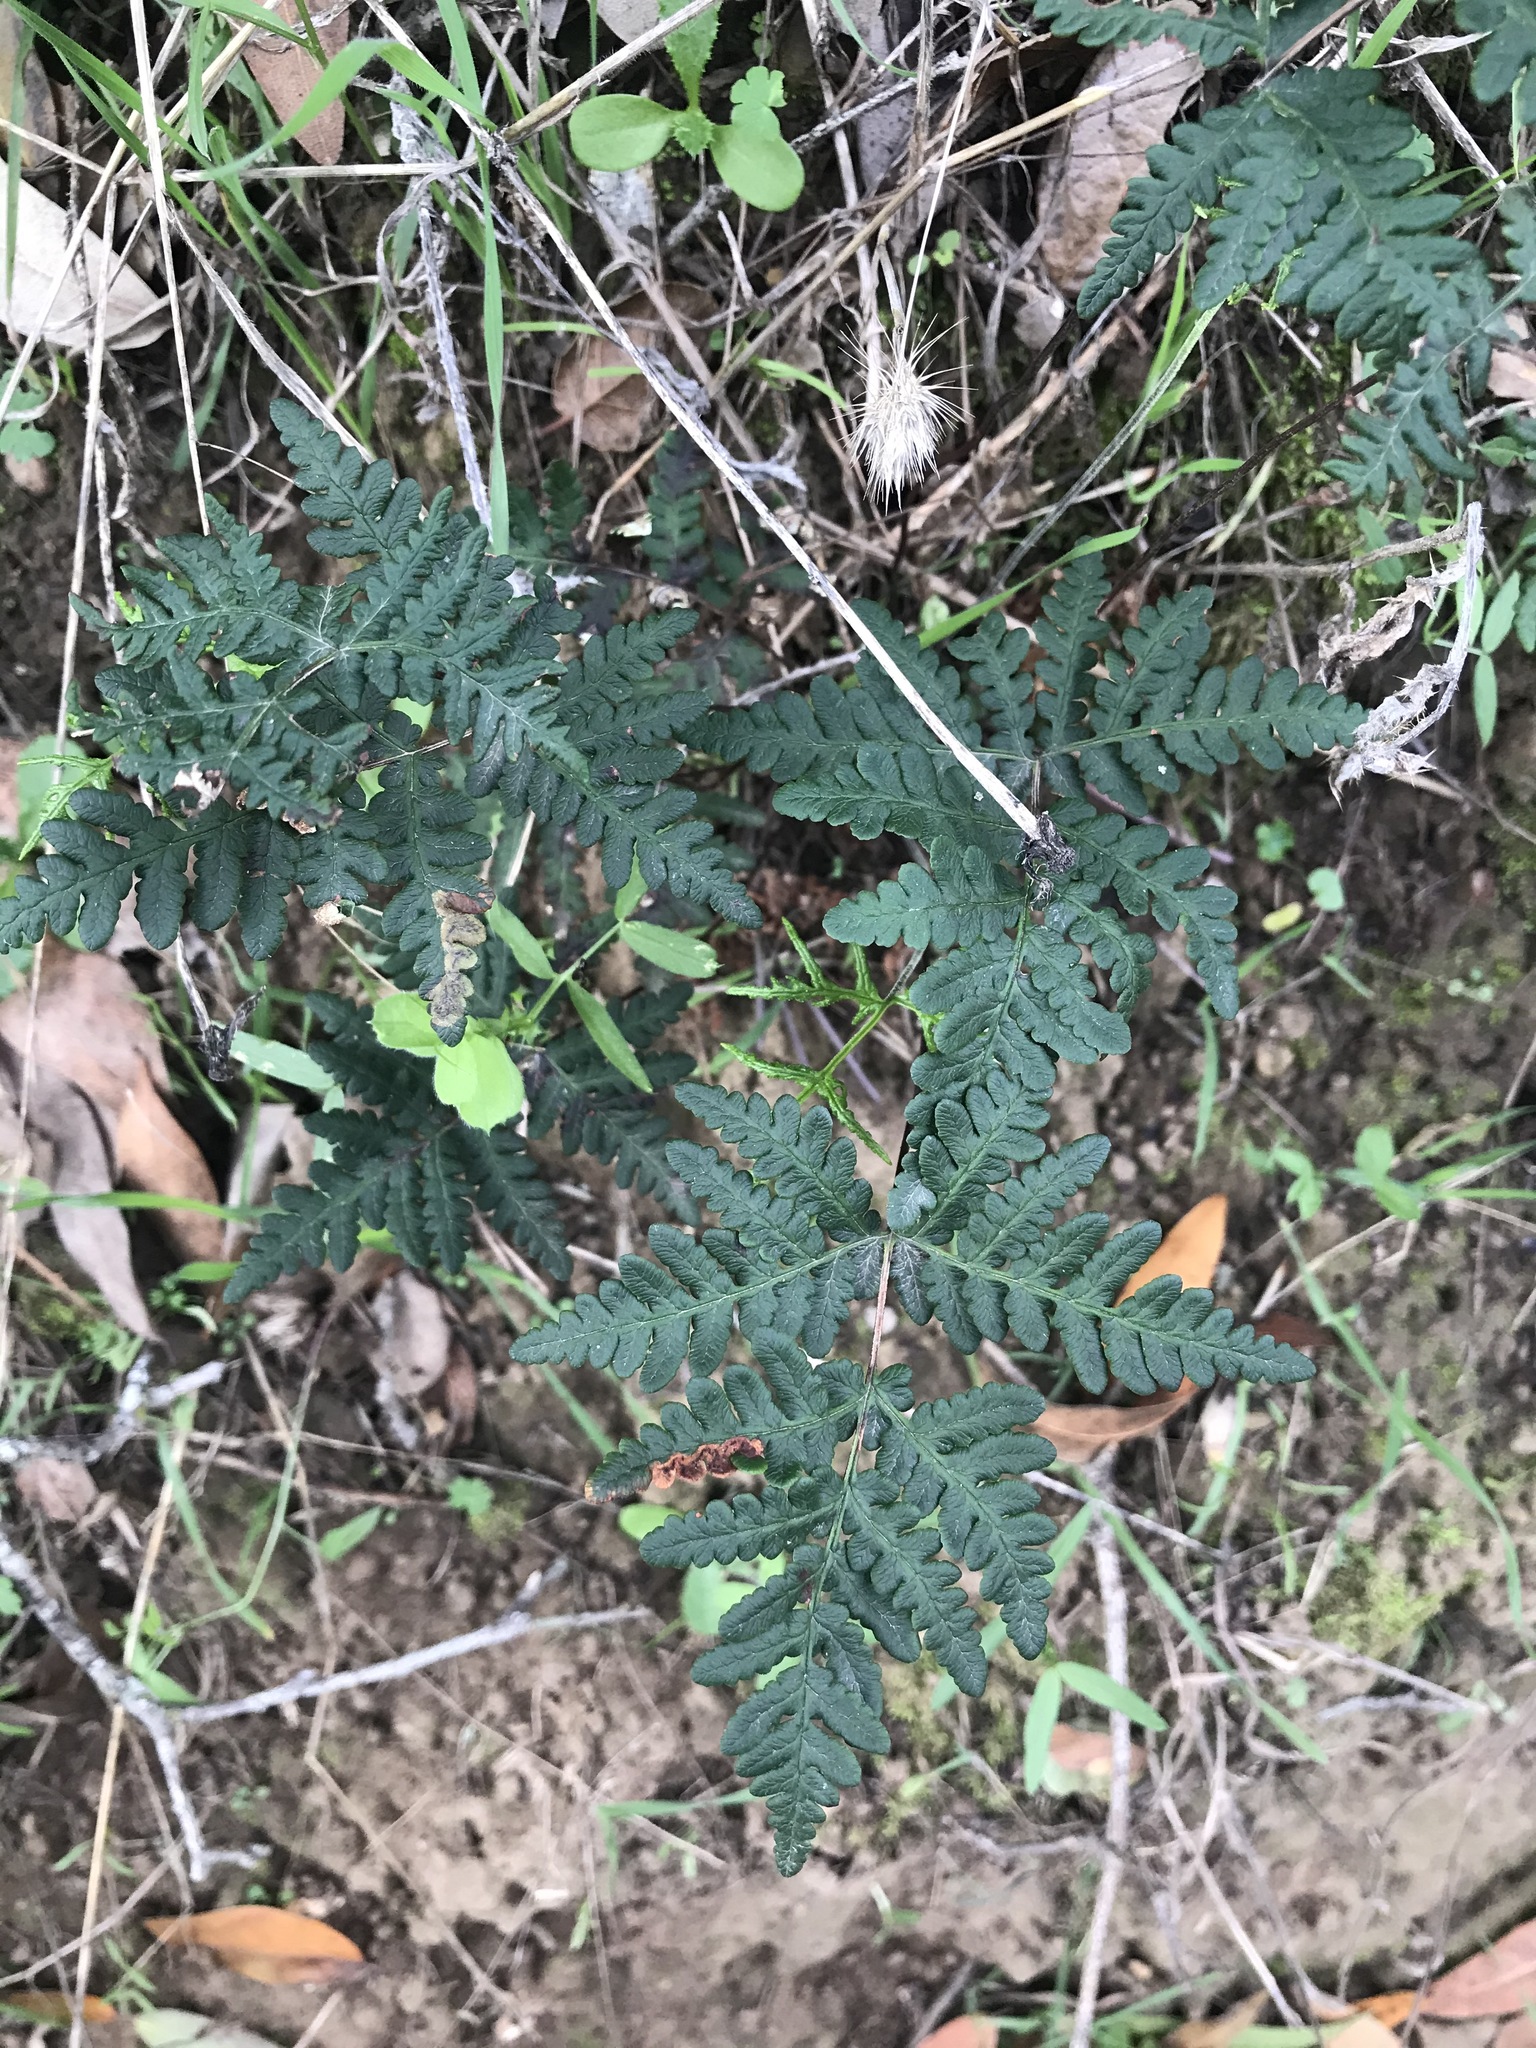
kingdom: Plantae
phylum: Tracheophyta
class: Polypodiopsida
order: Polypodiales
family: Pteridaceae
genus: Pentagramma
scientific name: Pentagramma triangularis
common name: Gold fern
